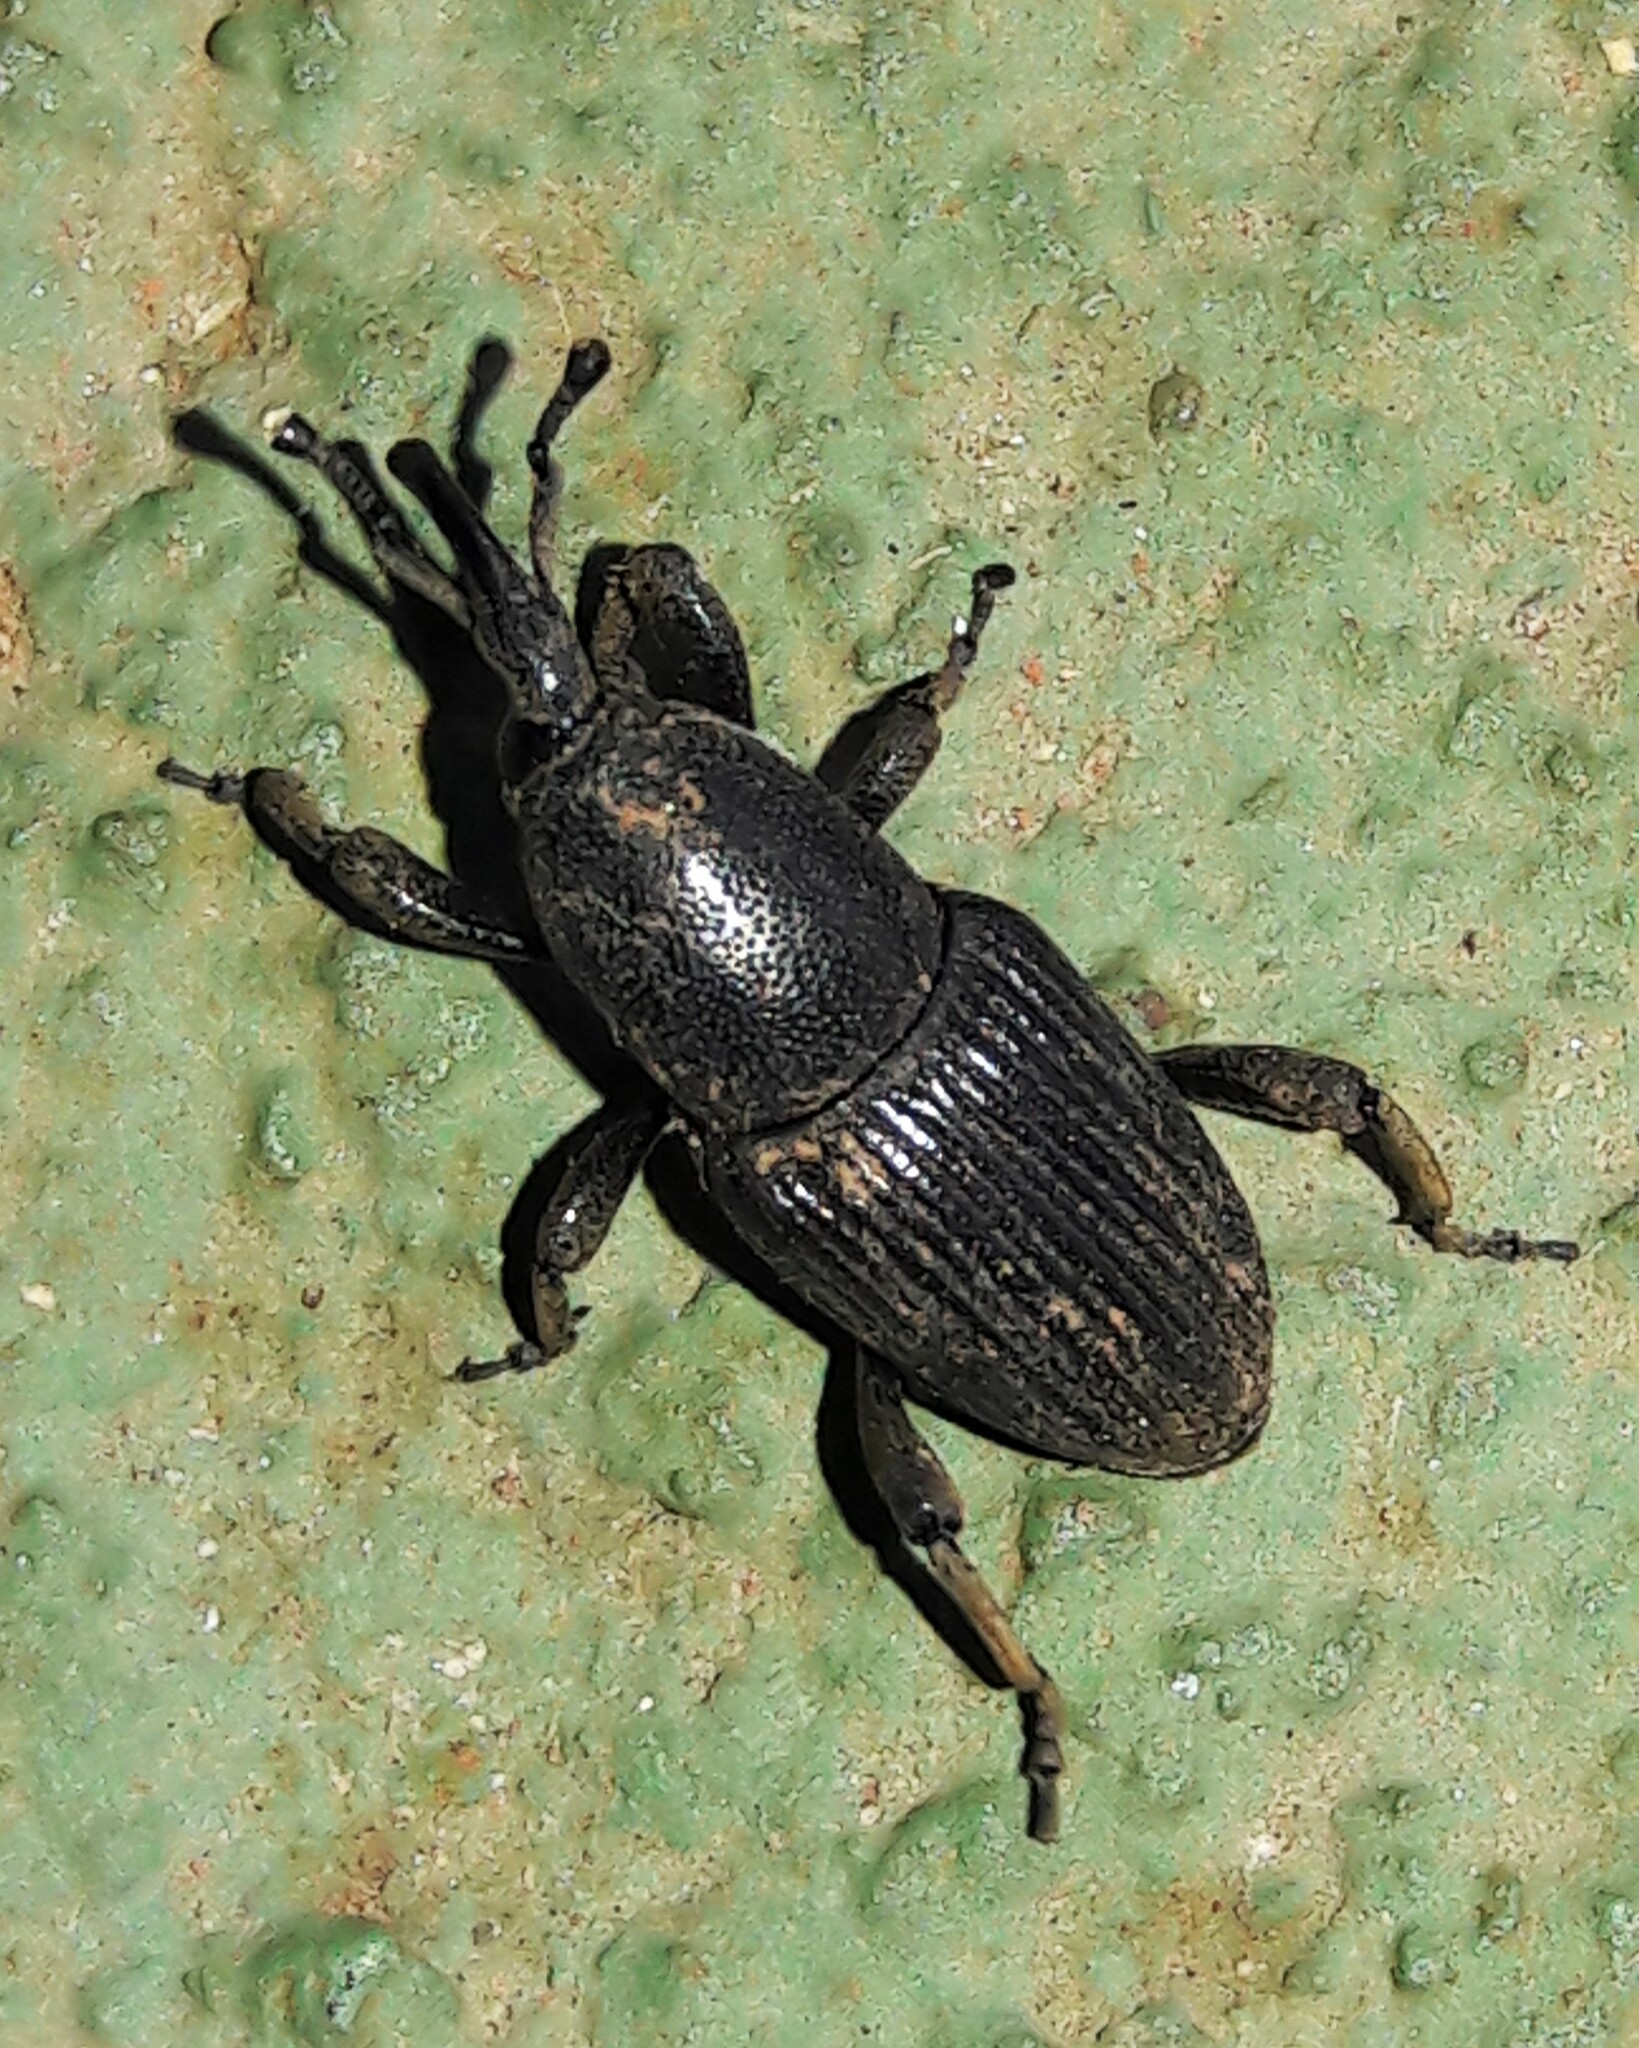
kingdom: Animalia
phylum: Arthropoda
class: Insecta
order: Coleoptera
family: Dryophthoridae
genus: Cosmopolites
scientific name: Cosmopolites sordidus
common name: Palm weevil
